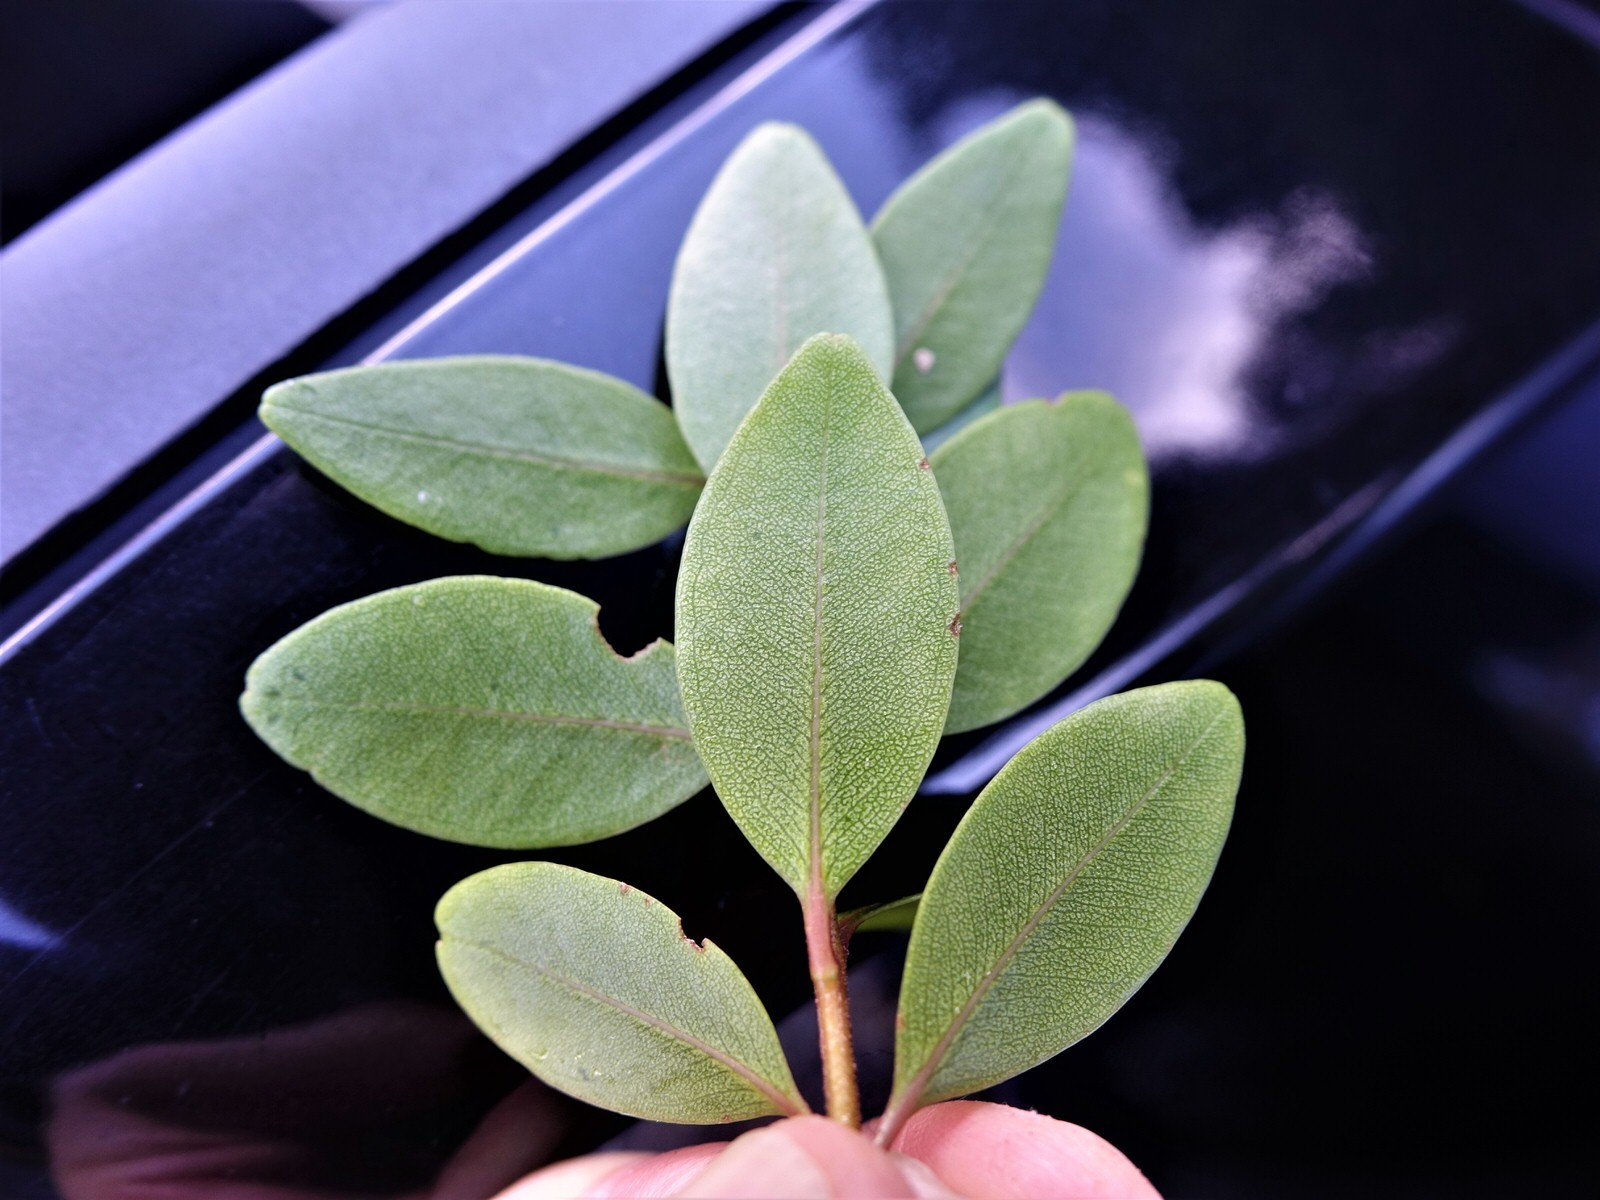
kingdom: Plantae
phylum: Tracheophyta
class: Magnoliopsida
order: Myrtales
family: Myrtaceae
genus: Metrosideros
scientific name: Metrosideros robusta
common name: Northern rata
